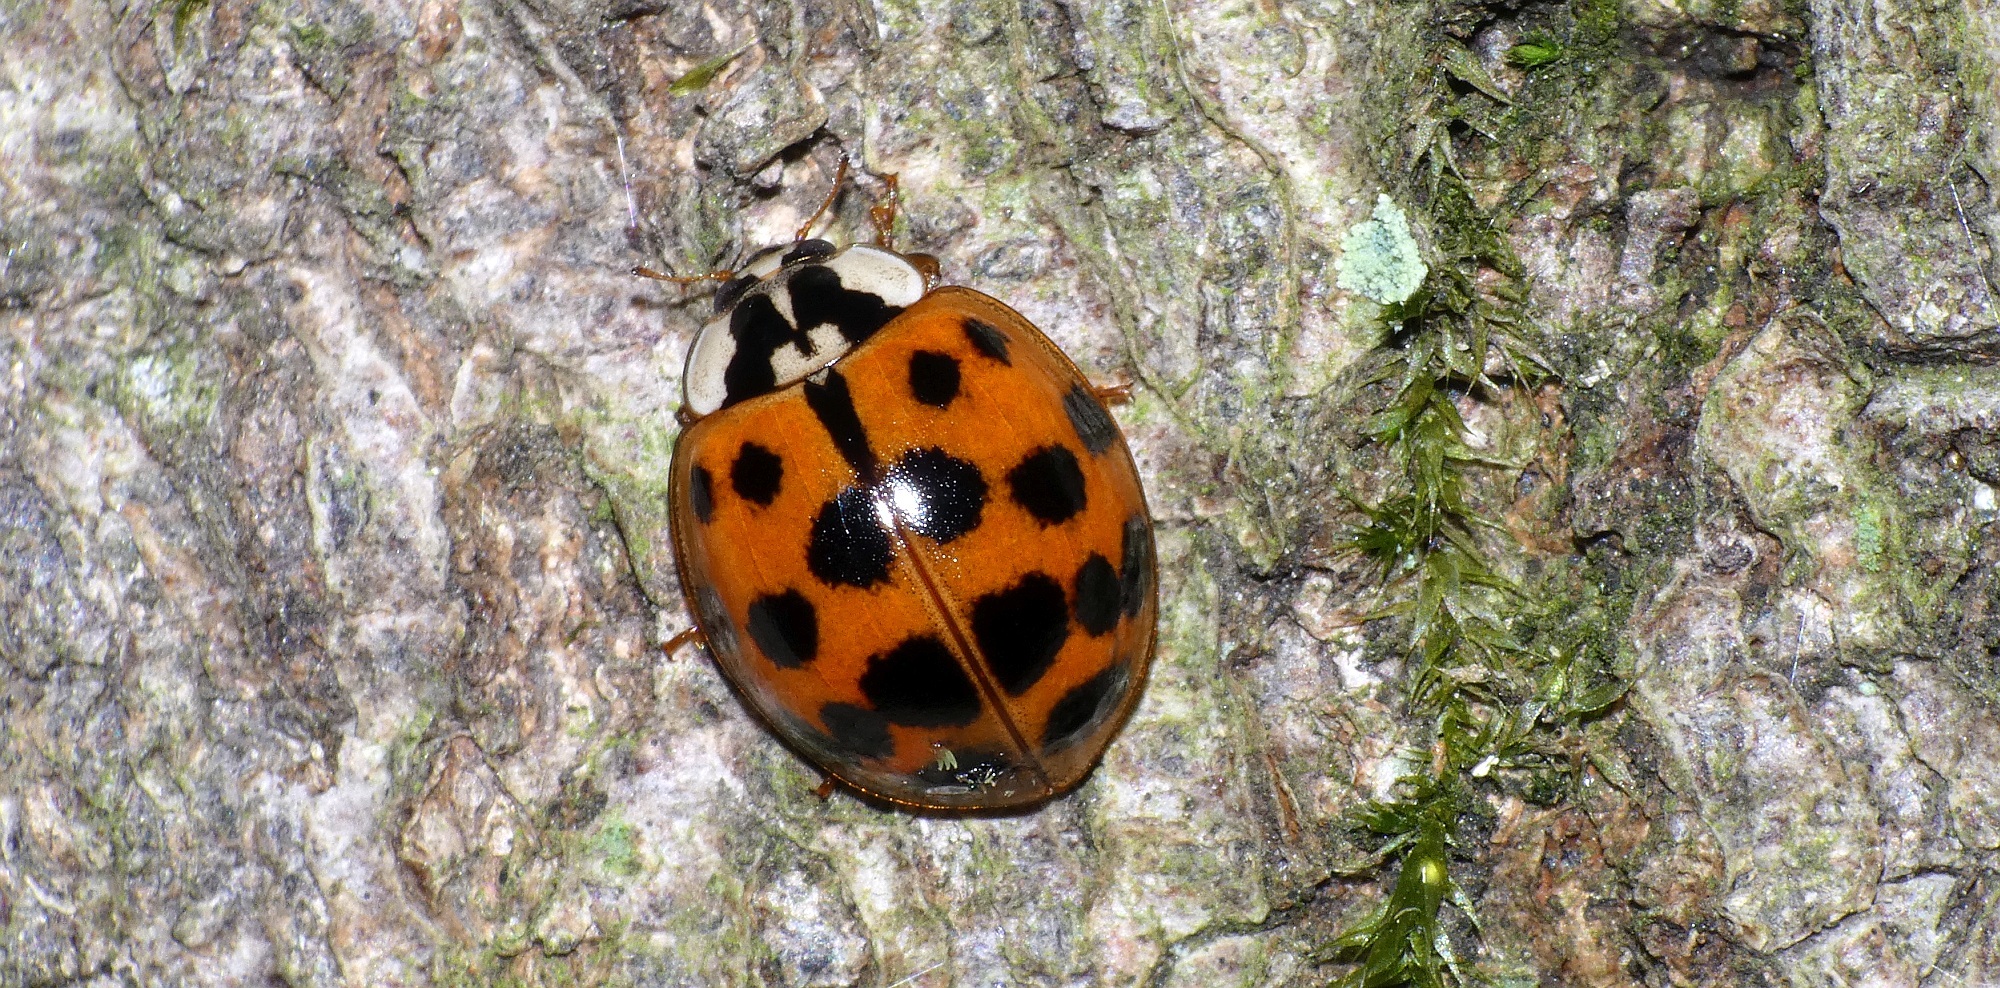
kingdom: Animalia
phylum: Arthropoda
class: Insecta
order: Coleoptera
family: Coccinellidae
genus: Harmonia
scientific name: Harmonia axyridis
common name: Harlequin ladybird
